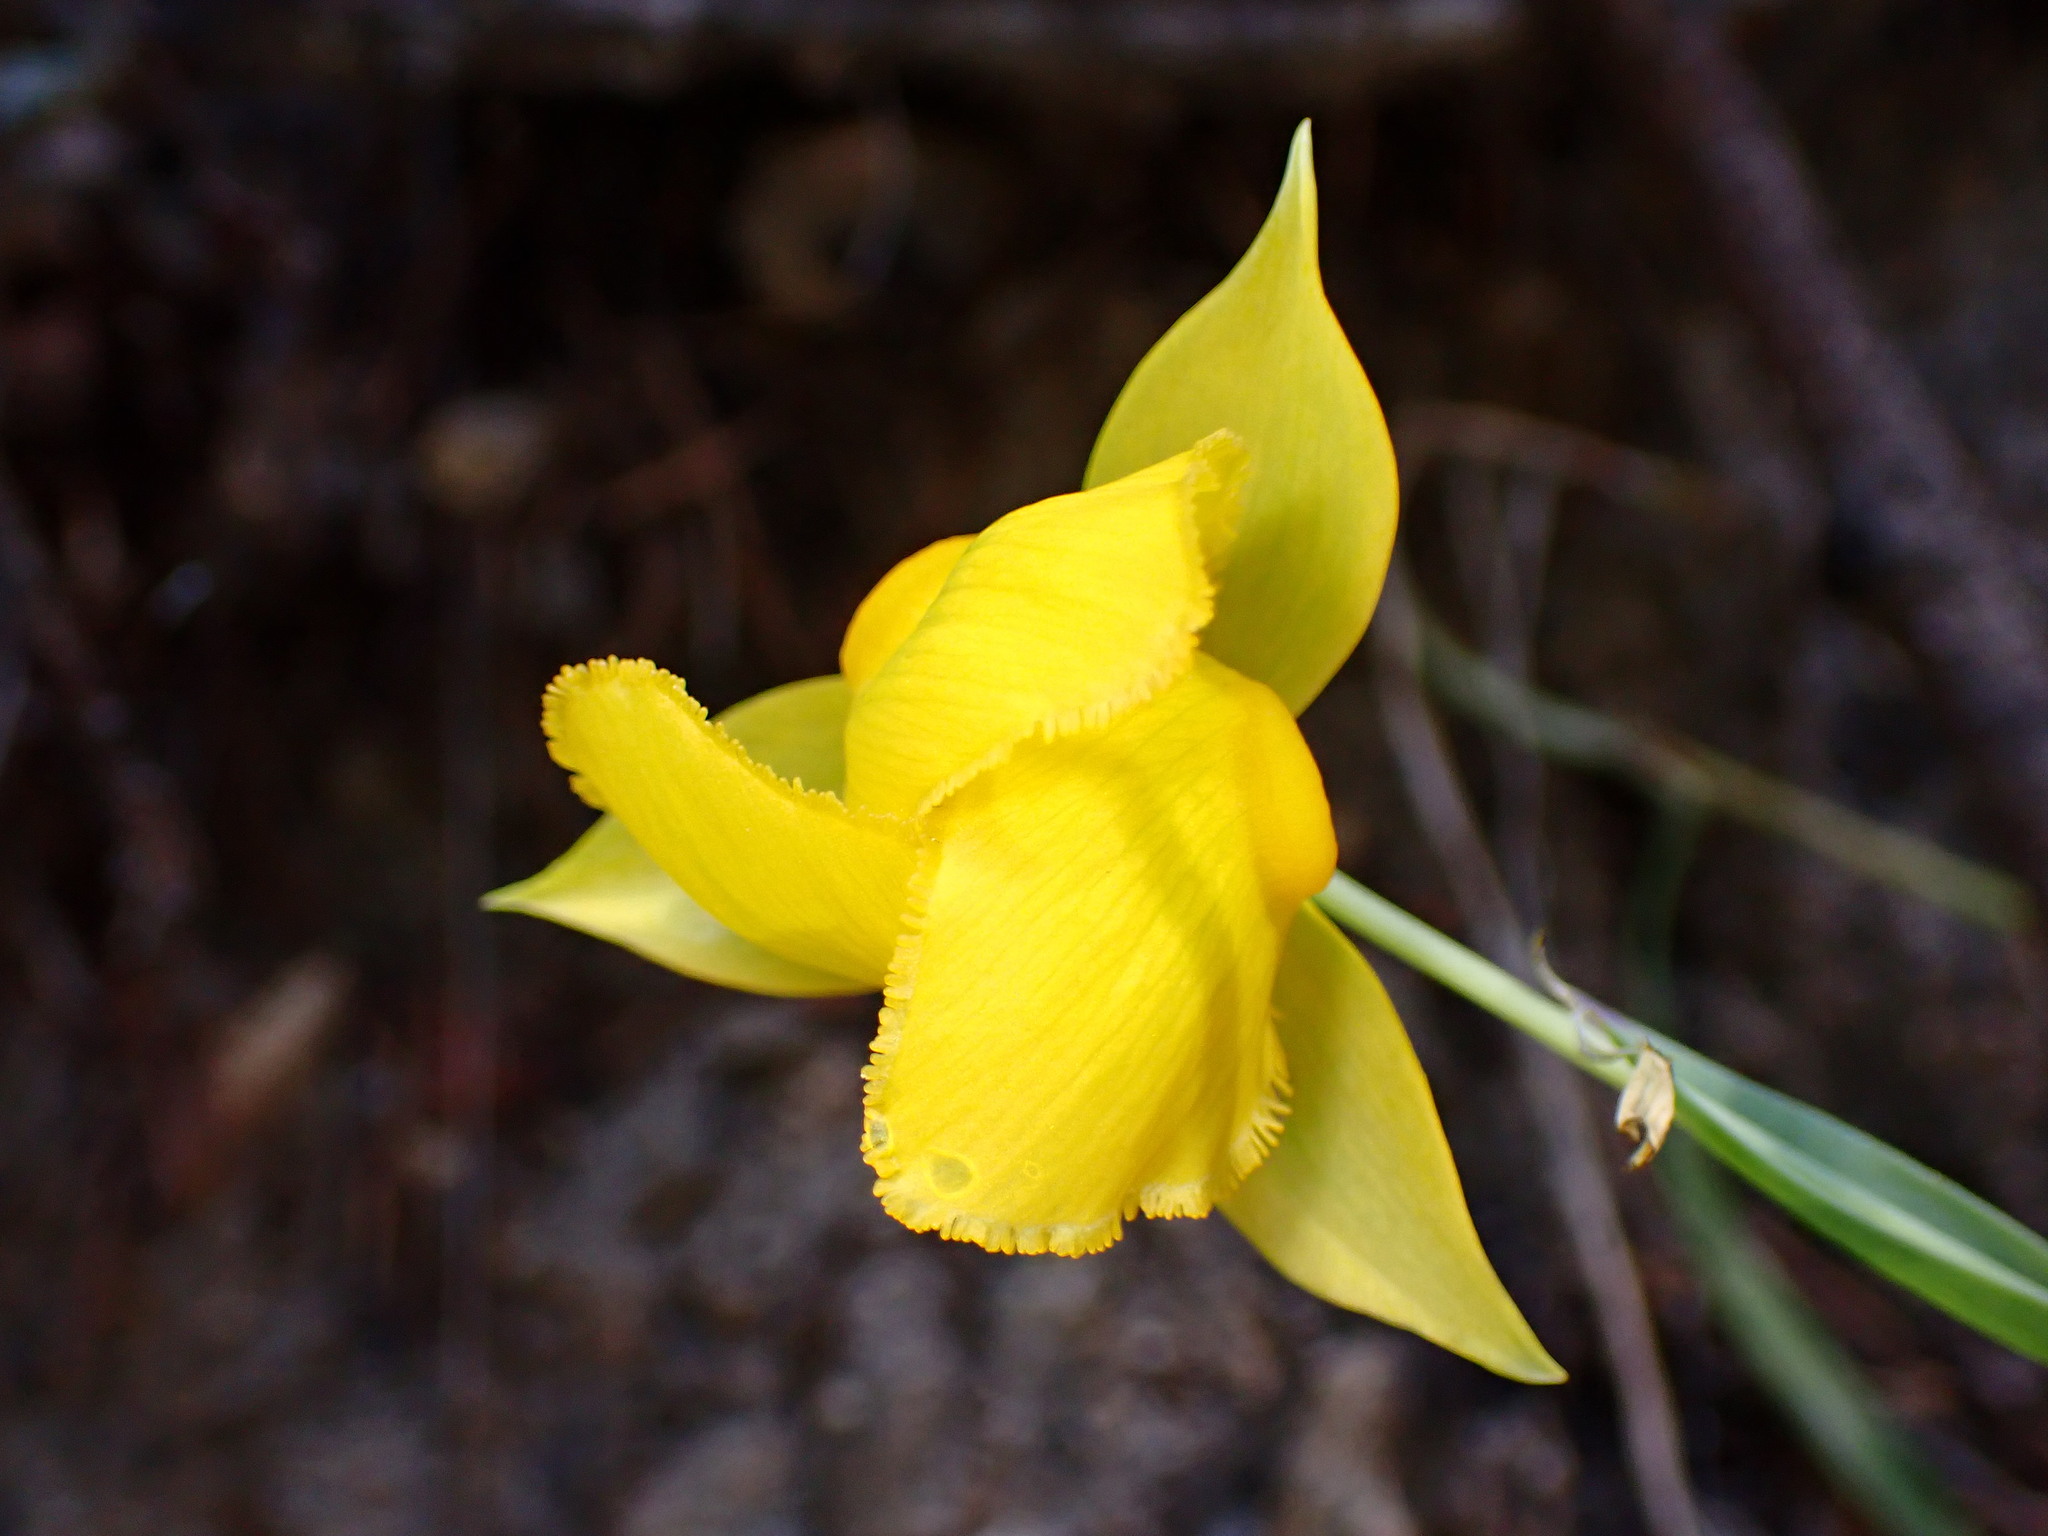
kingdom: Plantae
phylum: Tracheophyta
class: Liliopsida
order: Liliales
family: Liliaceae
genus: Calochortus
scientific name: Calochortus amabilis
